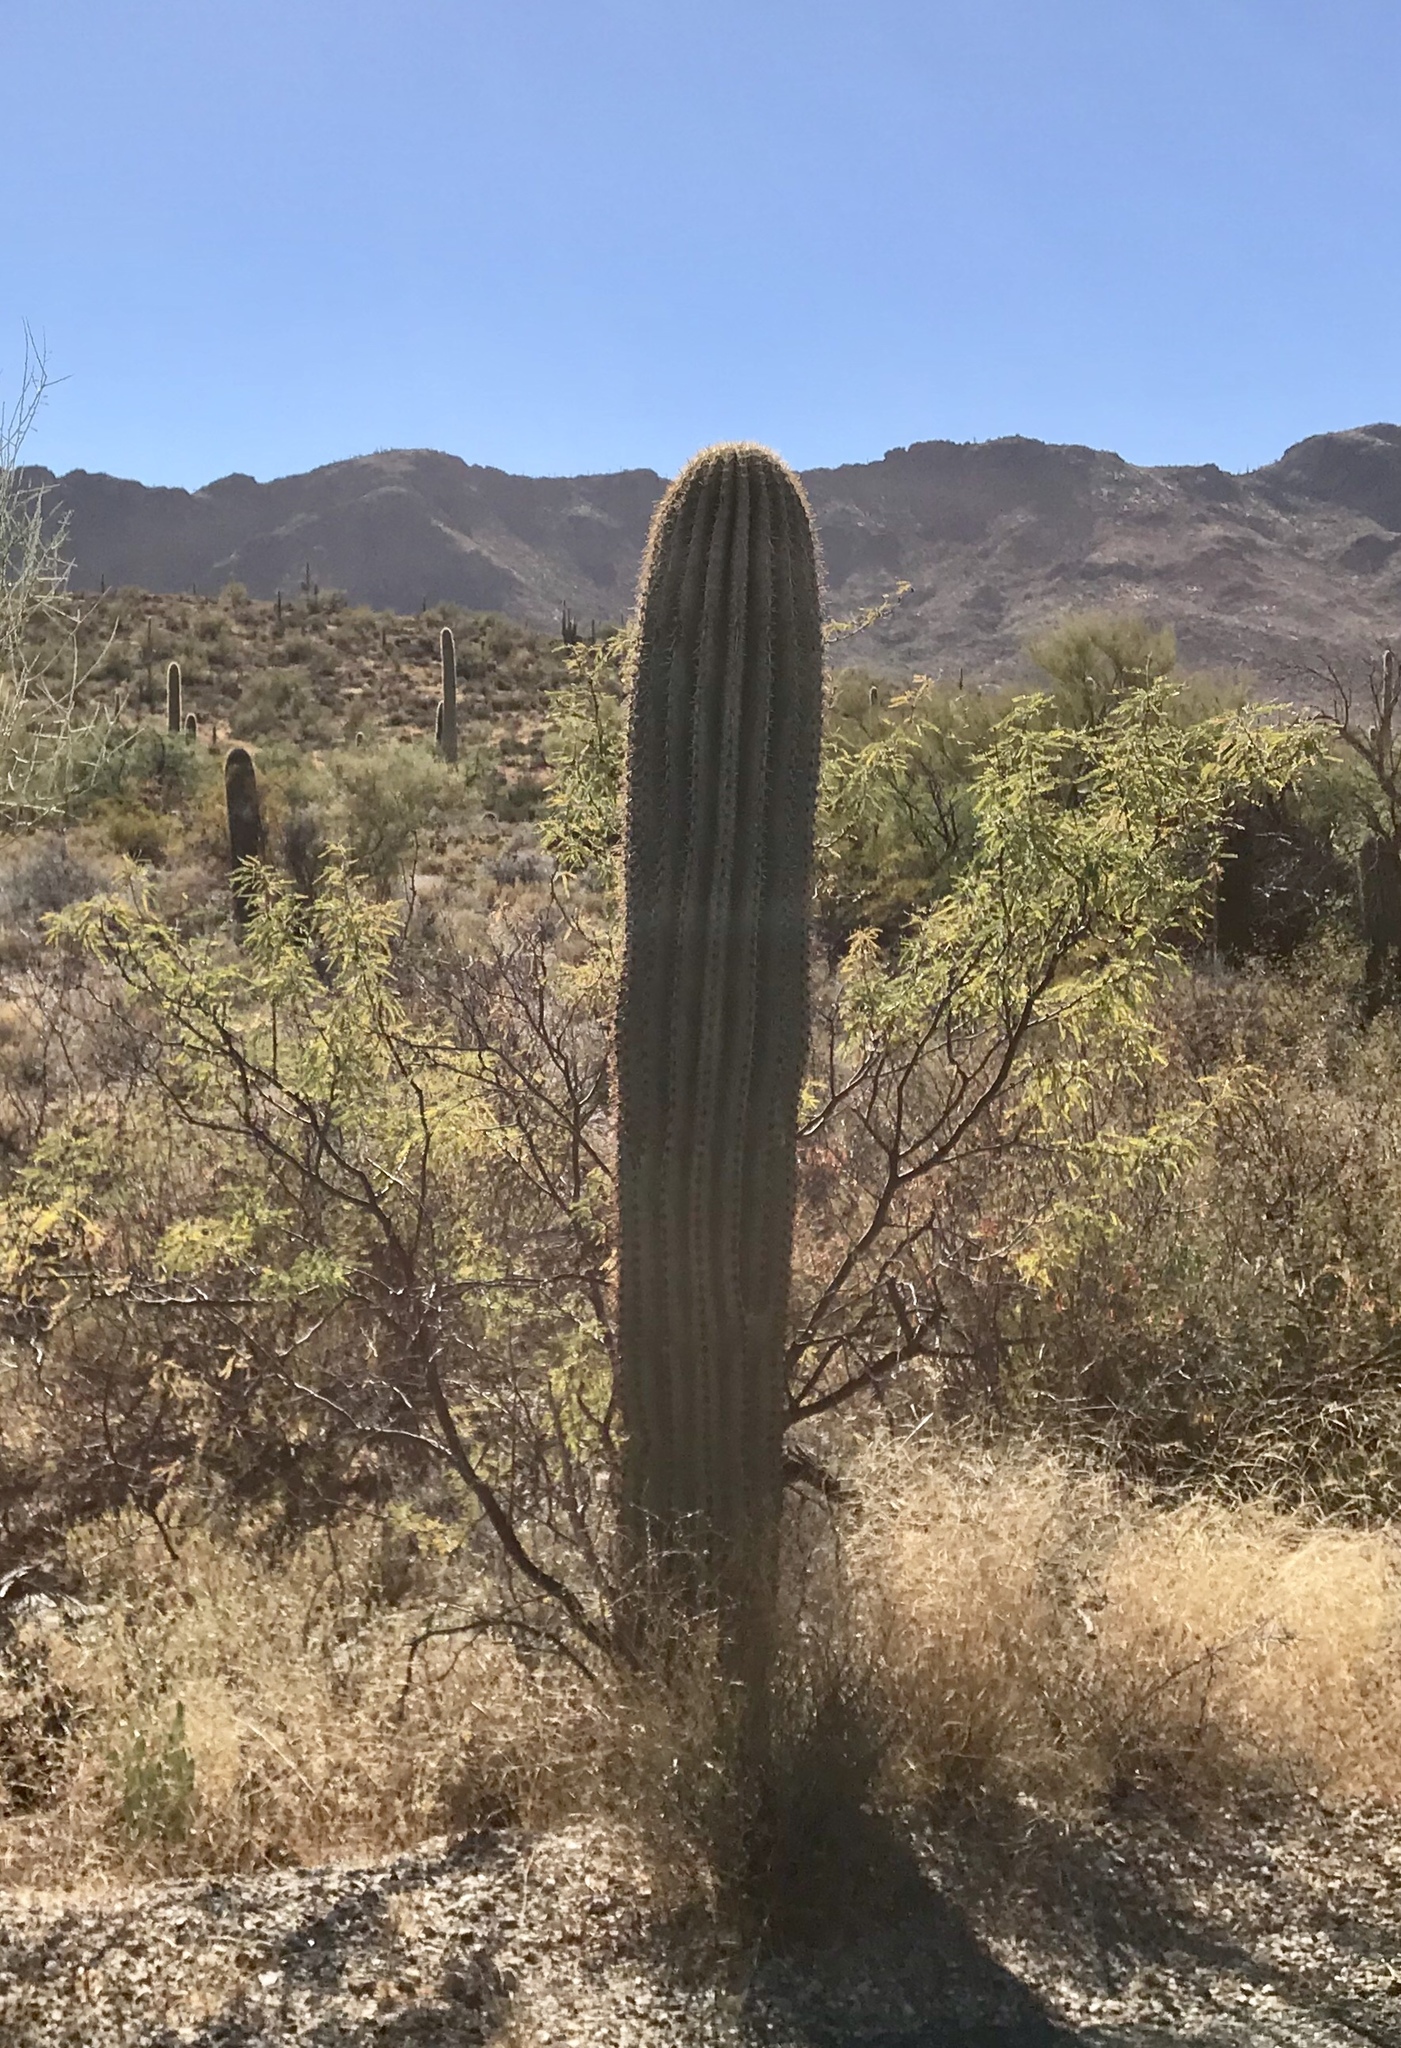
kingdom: Plantae
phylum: Tracheophyta
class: Magnoliopsida
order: Caryophyllales
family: Cactaceae
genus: Carnegiea
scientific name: Carnegiea gigantea
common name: Saguaro
